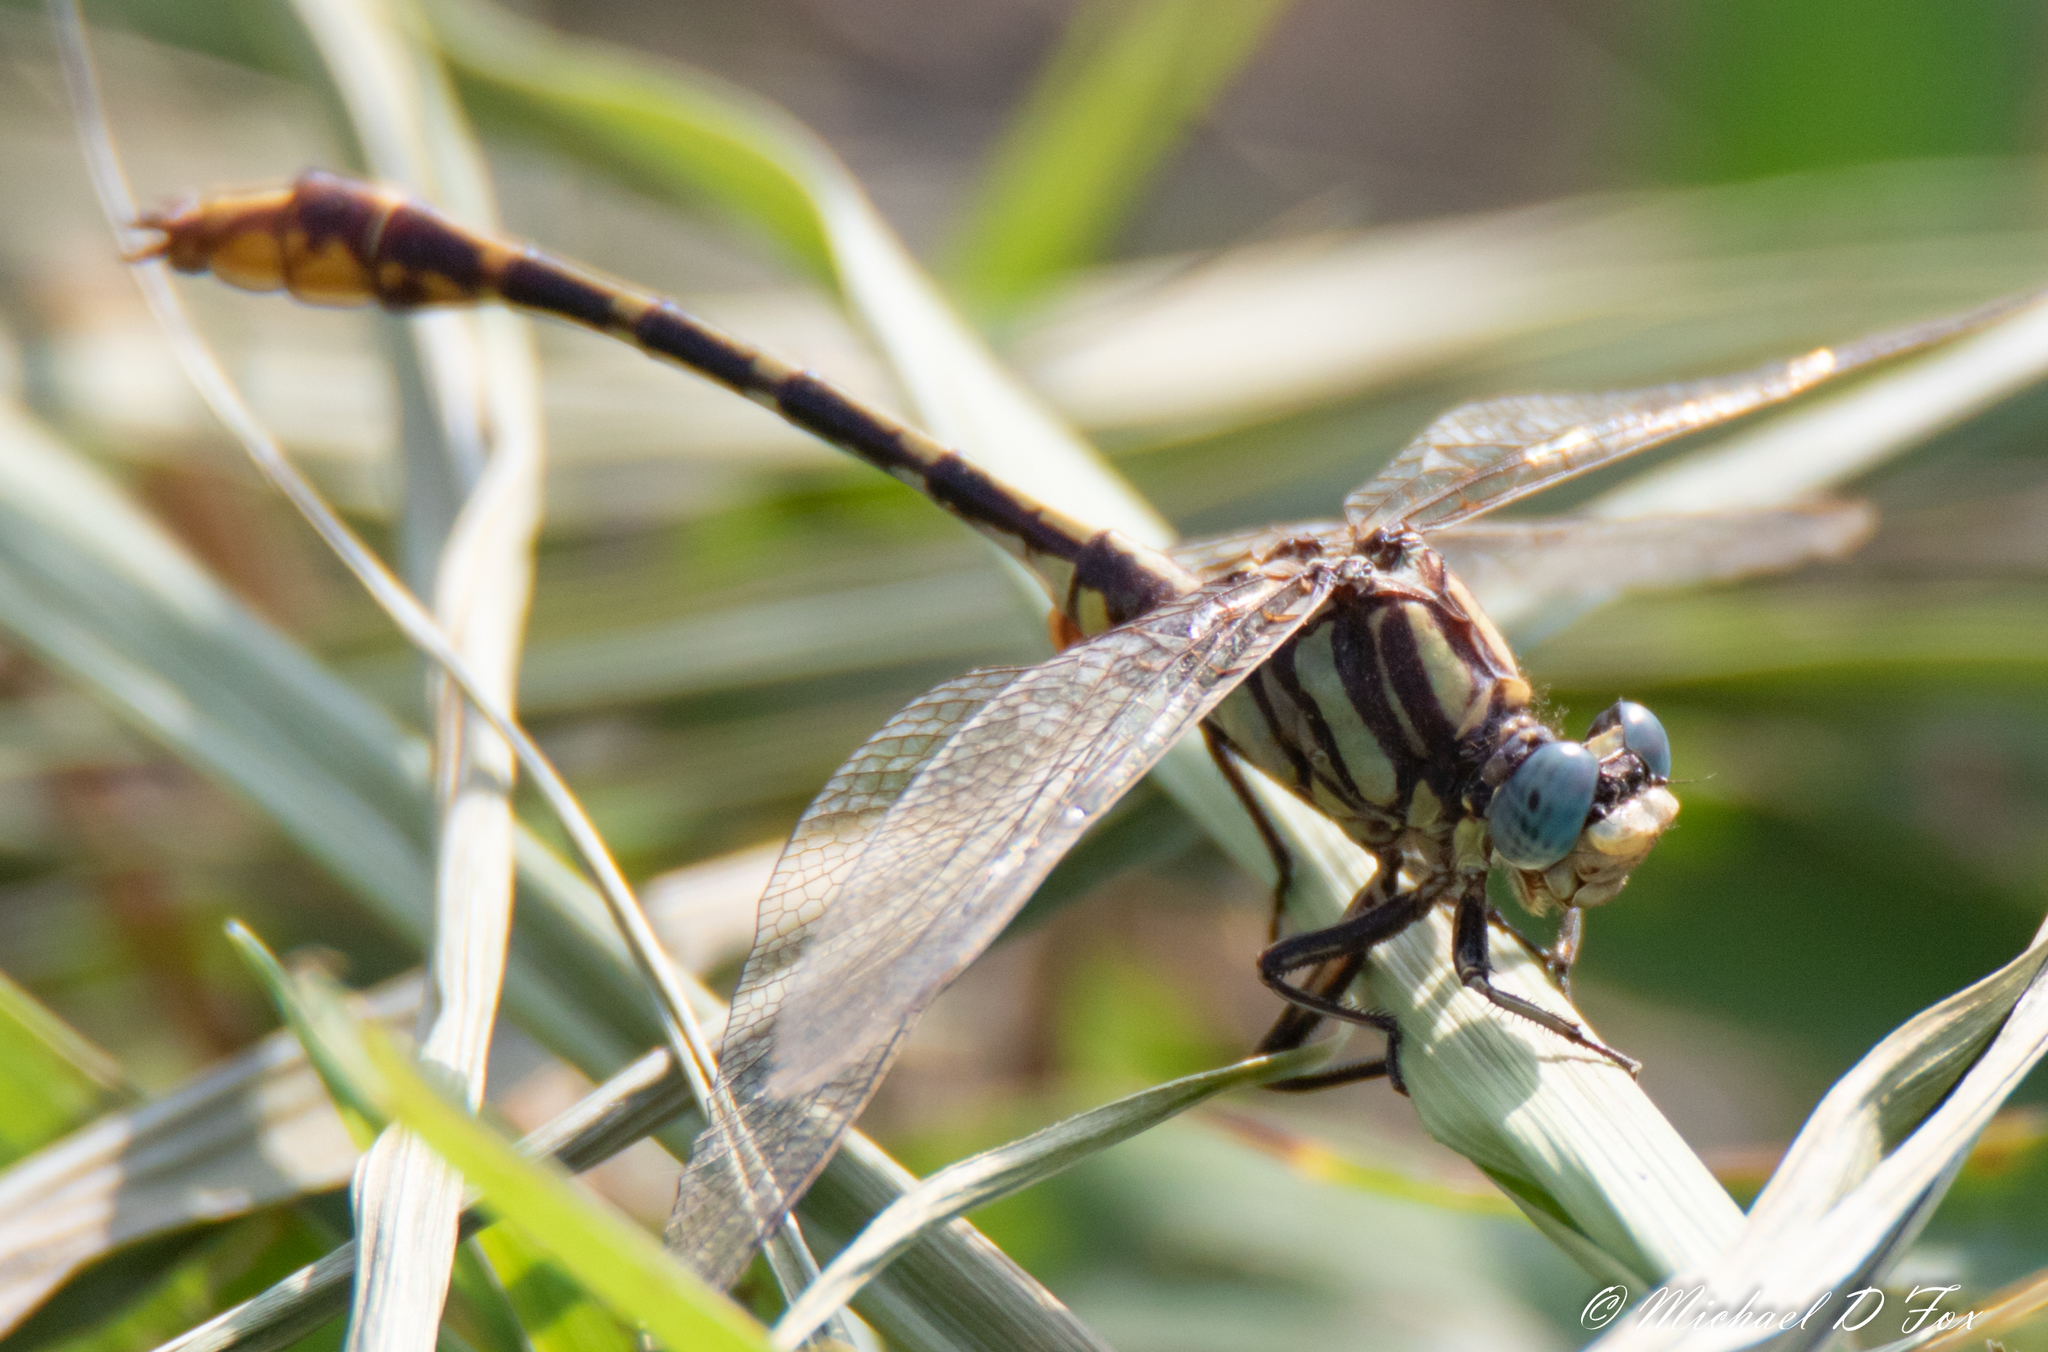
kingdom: Animalia
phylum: Arthropoda
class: Insecta
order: Odonata
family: Gomphidae
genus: Phanogomphus
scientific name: Phanogomphus militaris
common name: Sulphur-tipped clubtail
